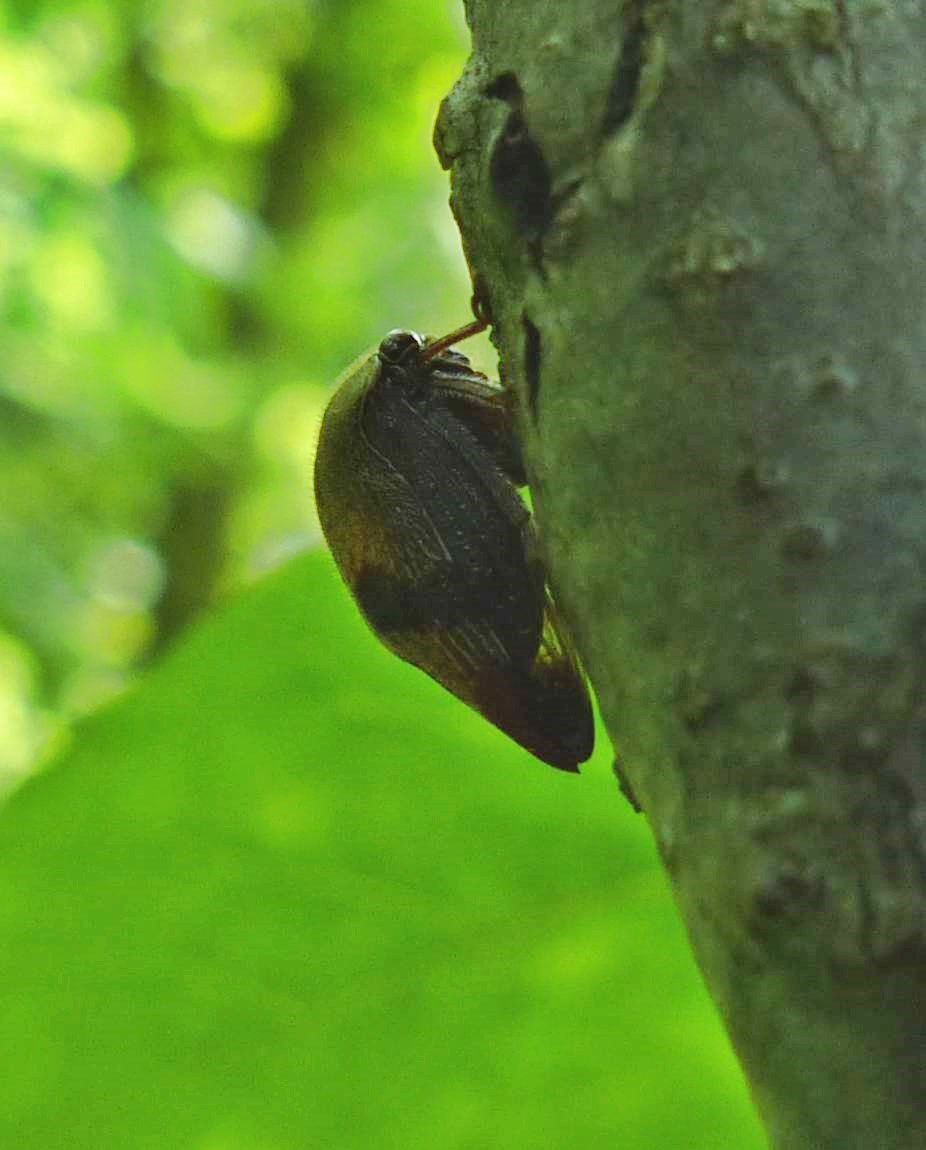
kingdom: Animalia
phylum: Arthropoda
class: Insecta
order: Hemiptera
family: Membracidae
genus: Carynota
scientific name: Carynota mera
